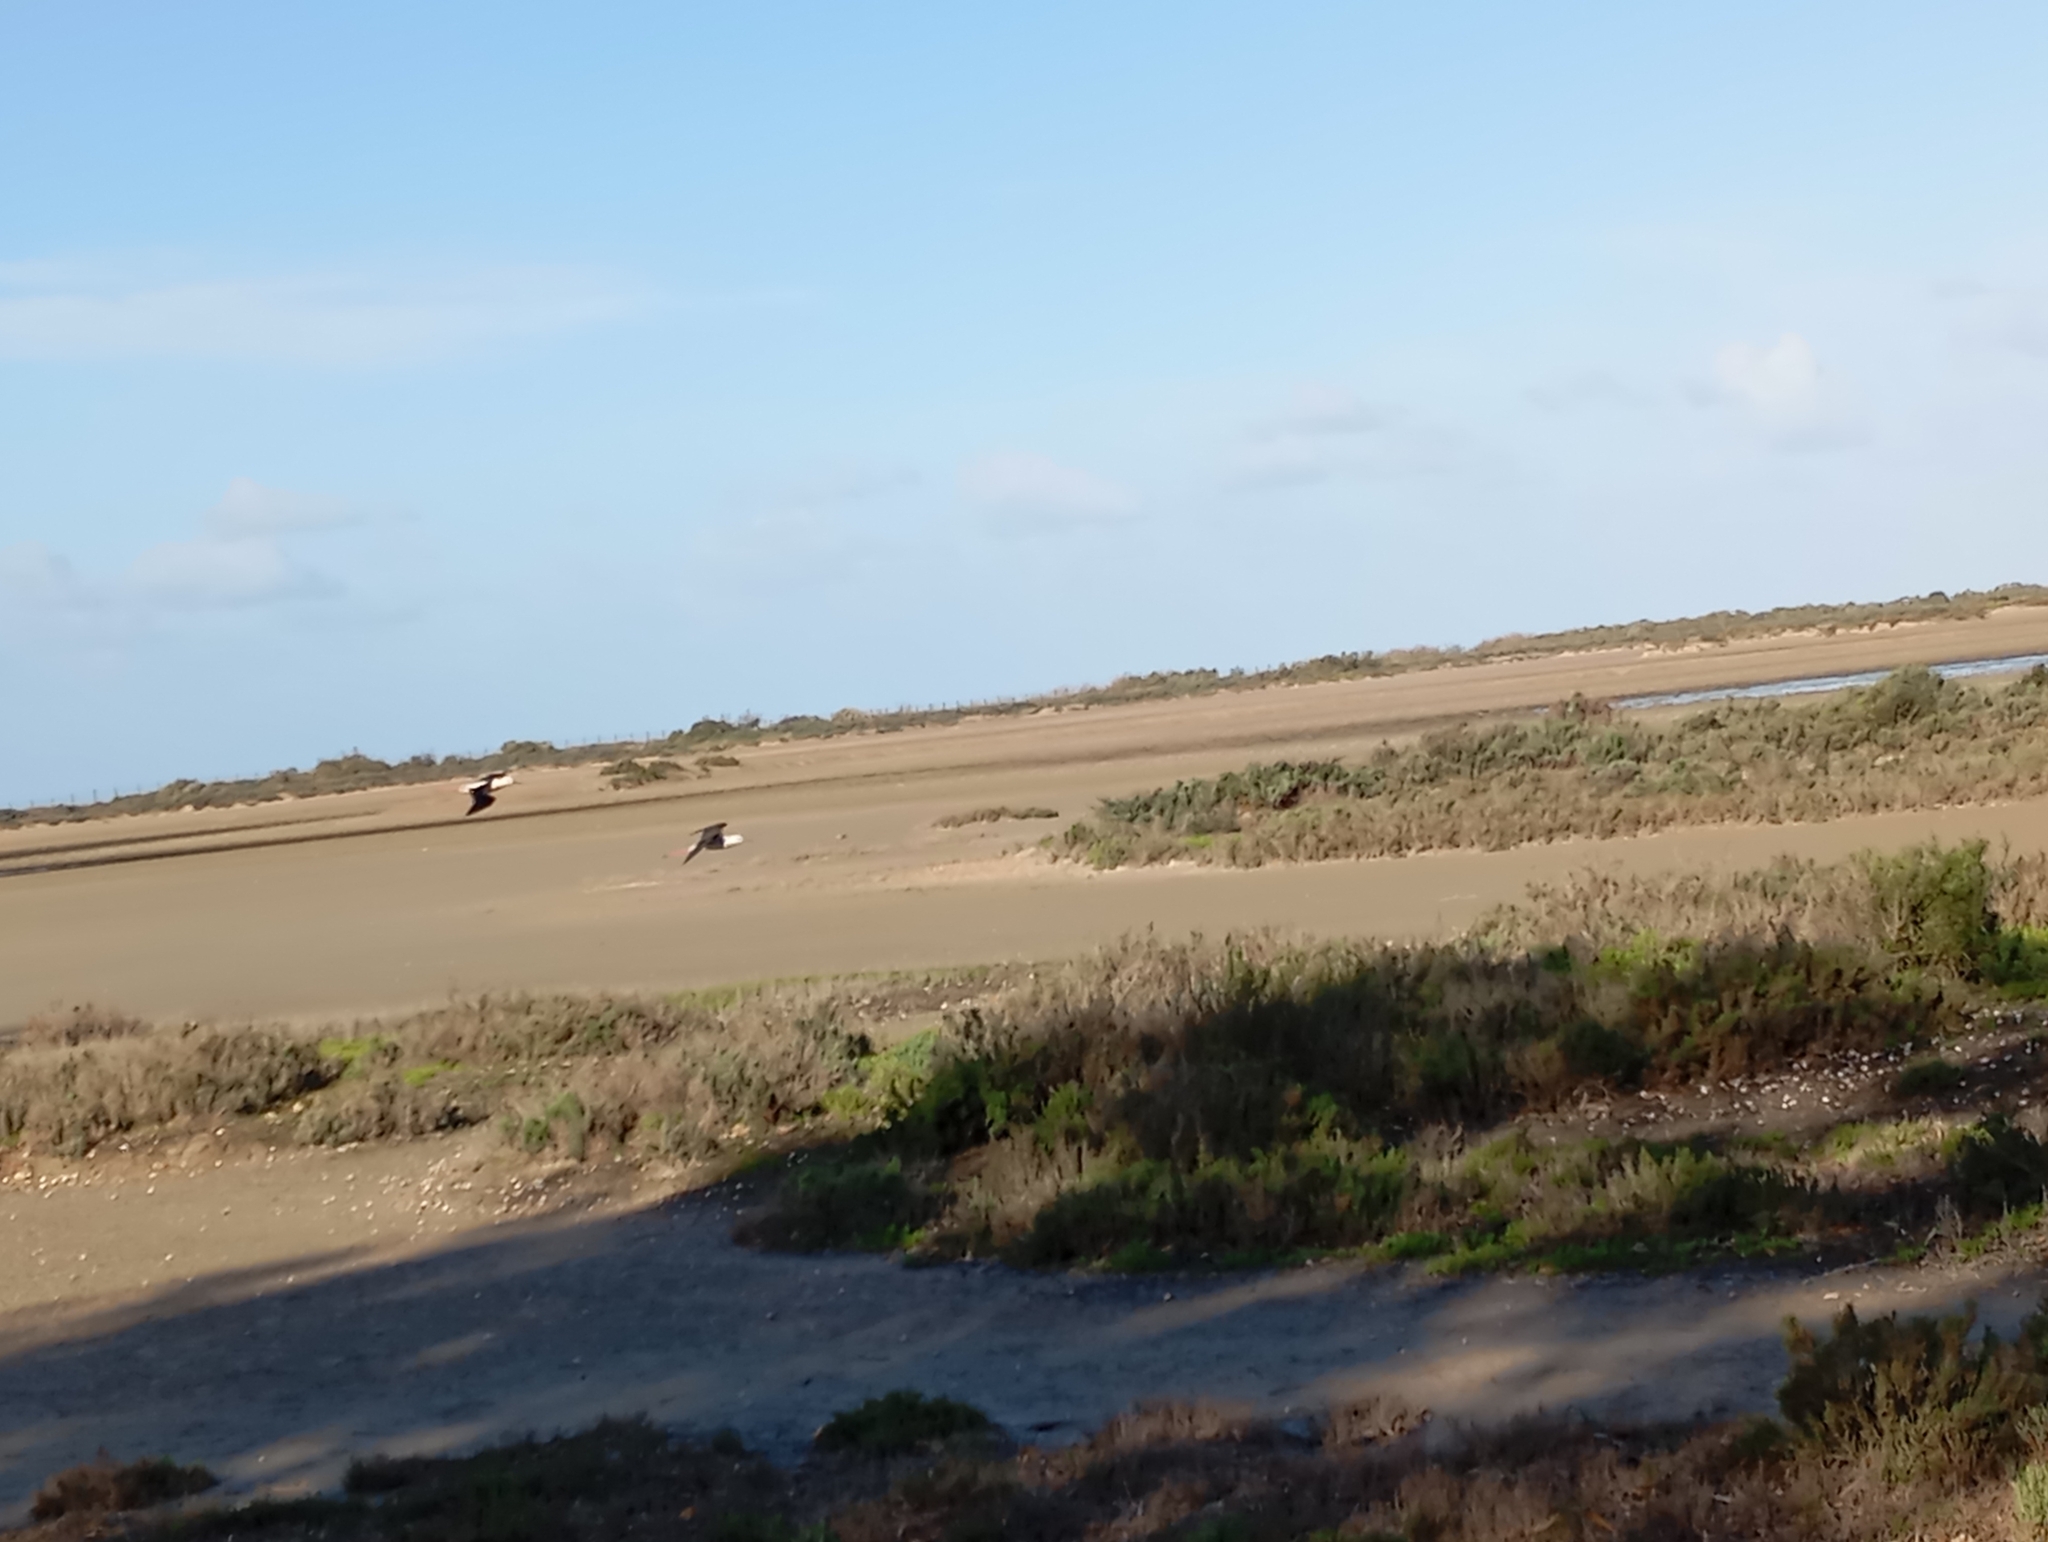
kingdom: Animalia
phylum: Chordata
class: Aves
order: Charadriiformes
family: Recurvirostridae
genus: Himantopus
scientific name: Himantopus himantopus
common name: Black-winged stilt
